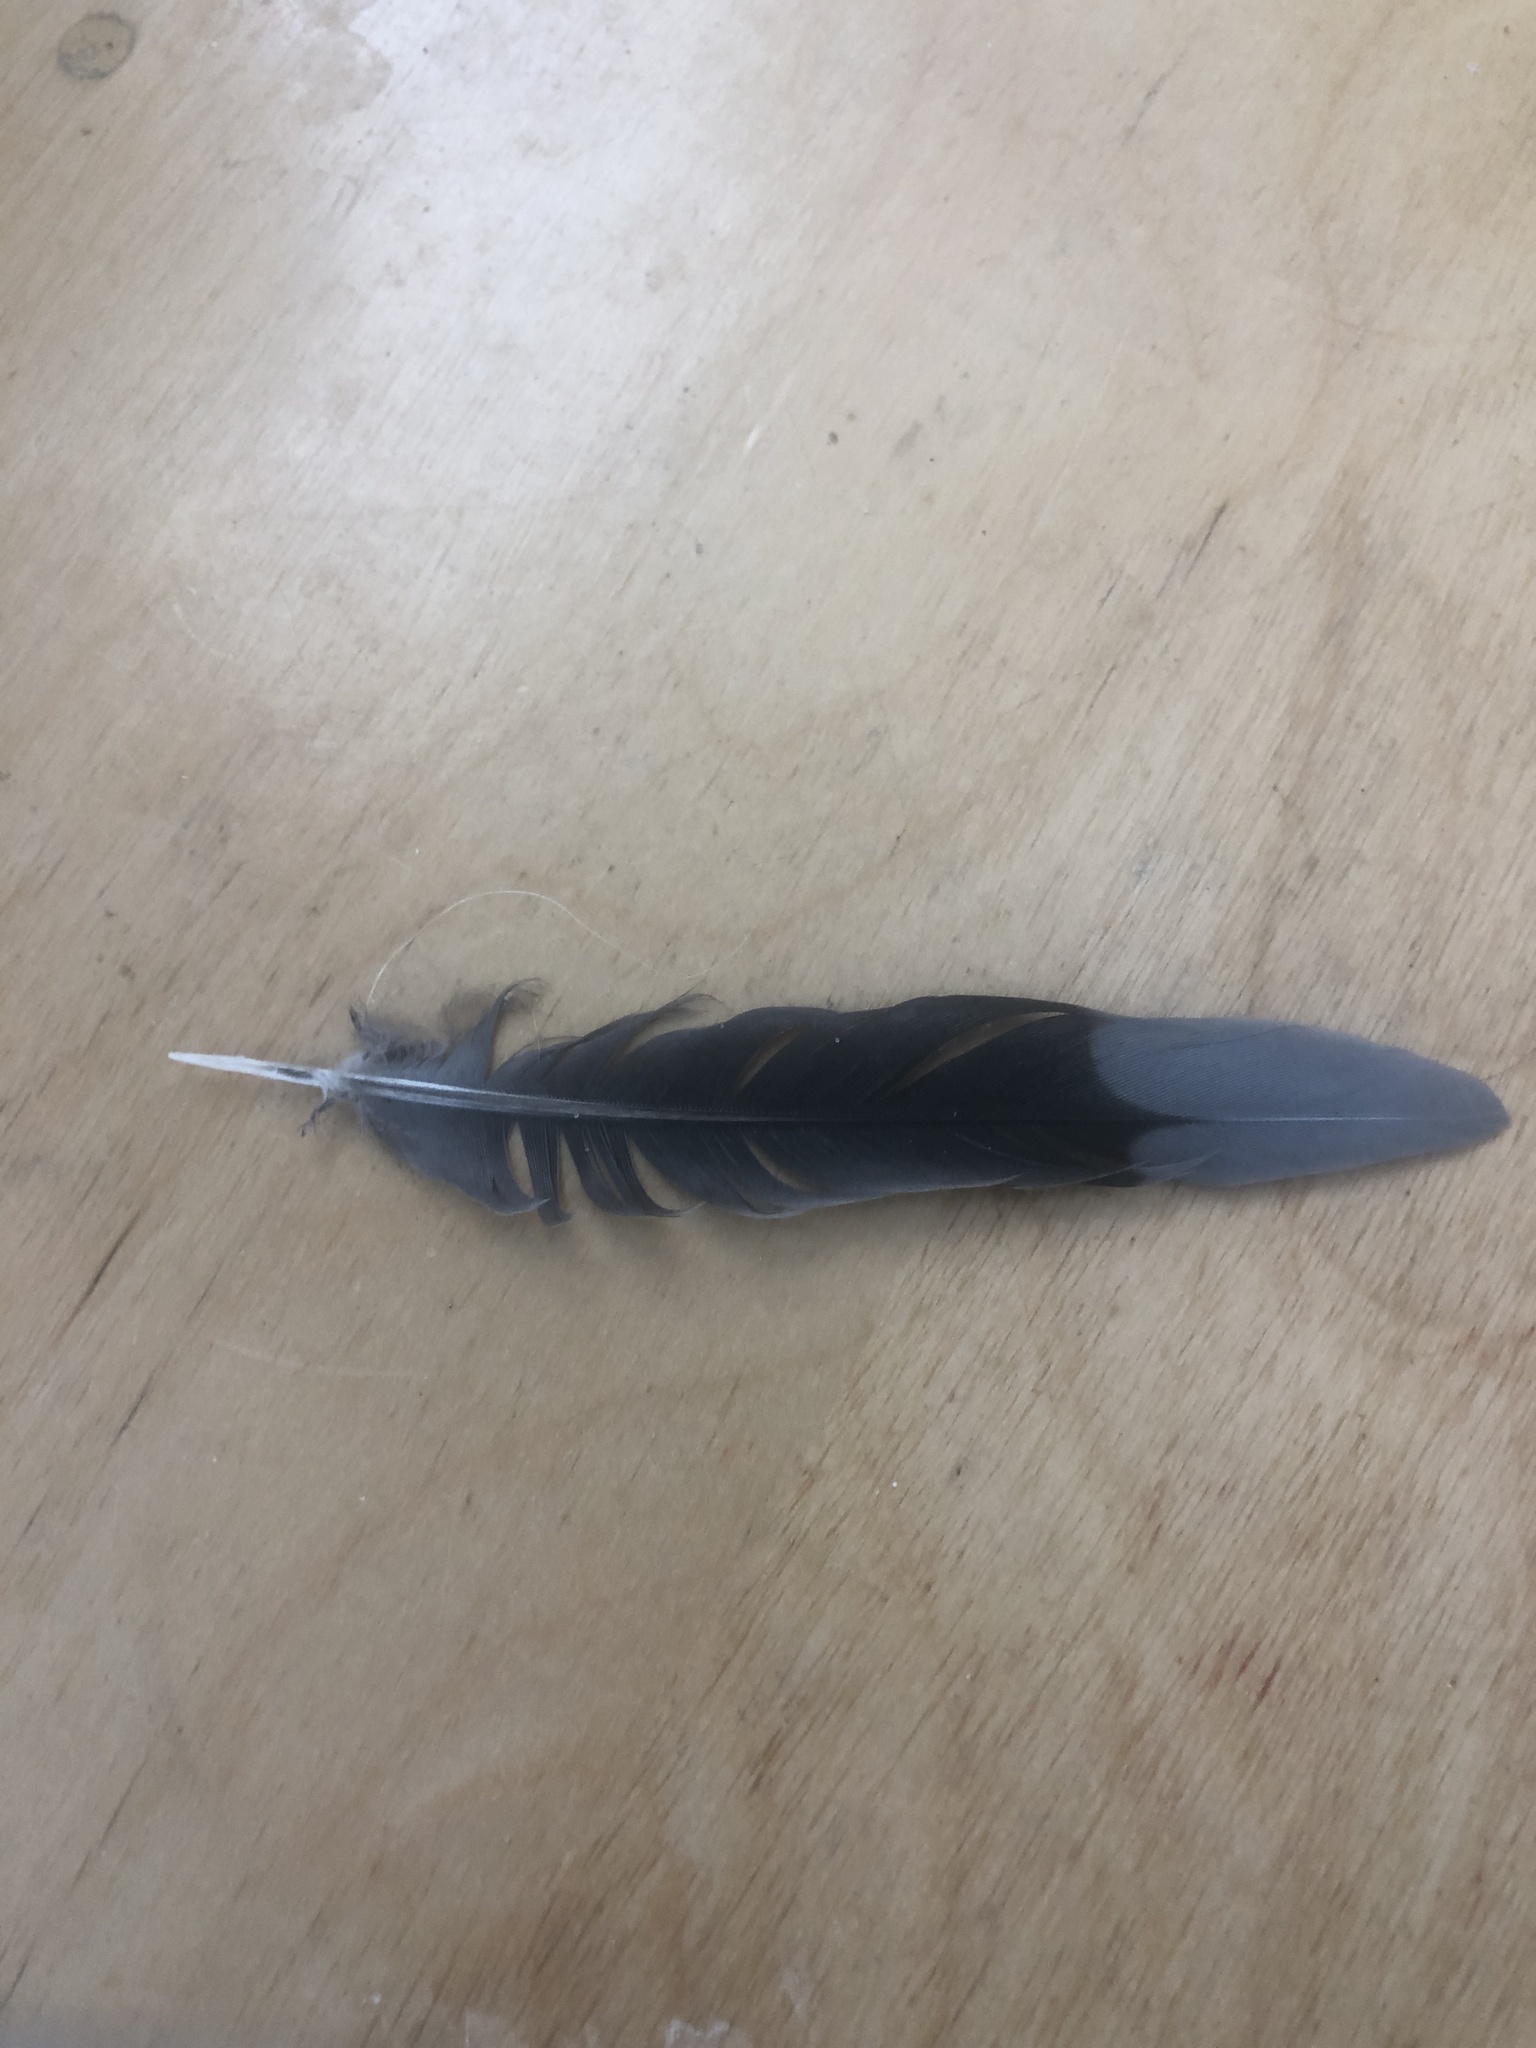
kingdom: Animalia
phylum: Chordata
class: Aves
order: Columbiformes
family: Columbidae
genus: Zenaida
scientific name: Zenaida macroura
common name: Mourning dove
